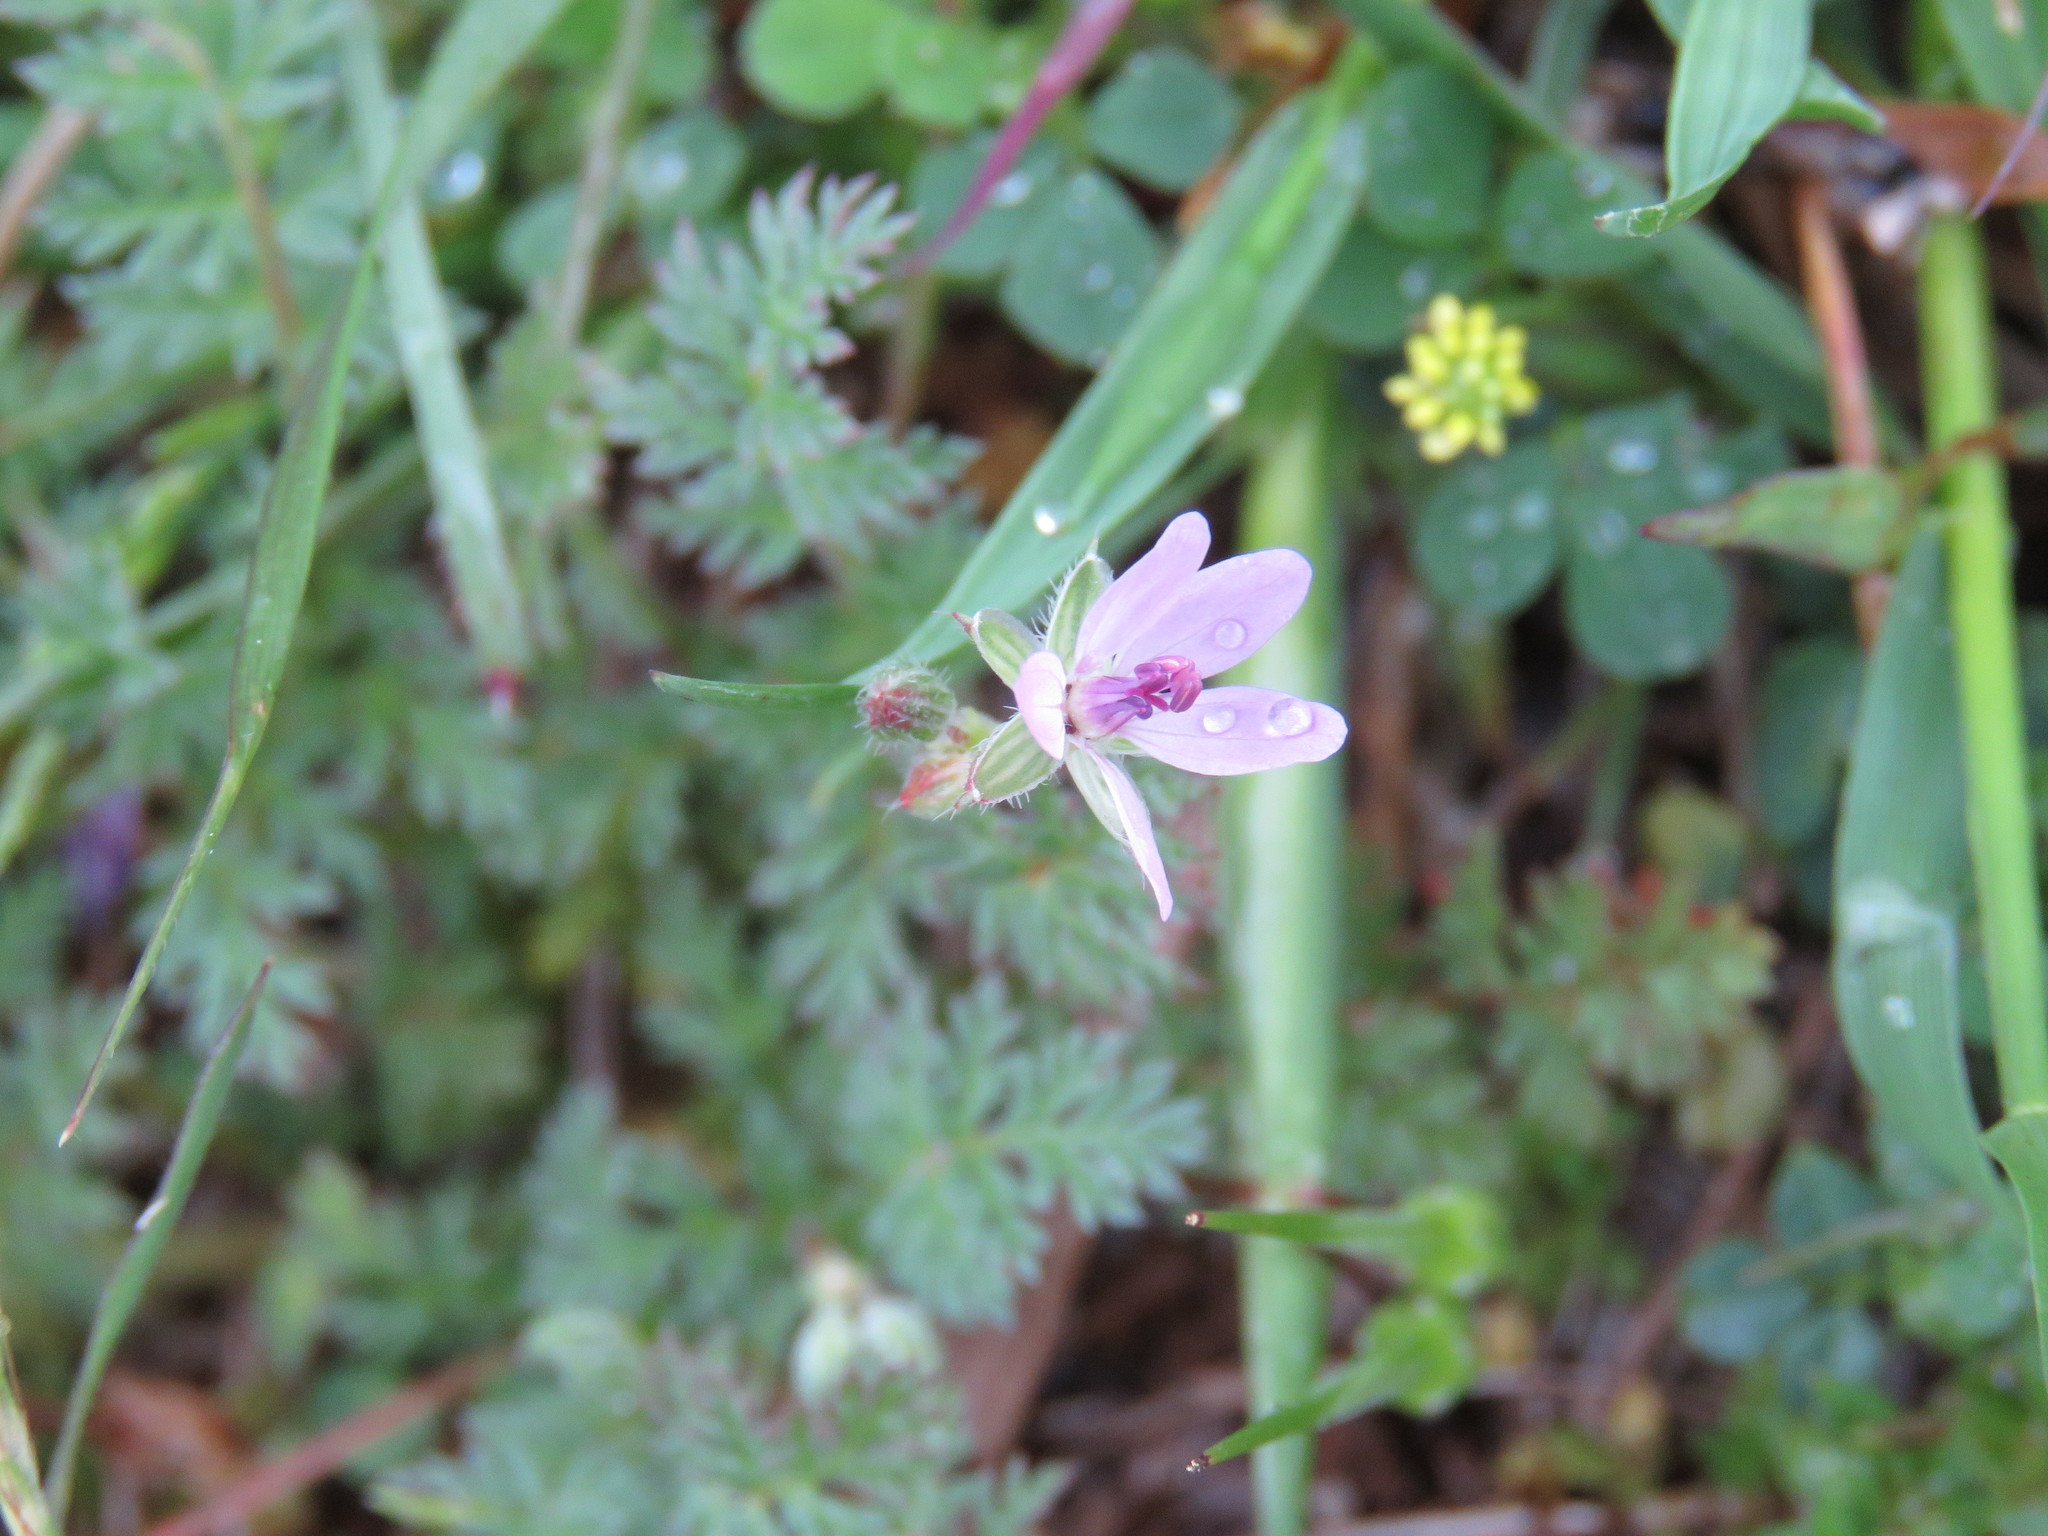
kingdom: Plantae
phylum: Tracheophyta
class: Magnoliopsida
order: Geraniales
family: Geraniaceae
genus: Erodium
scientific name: Erodium cicutarium
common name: Common stork's-bill
